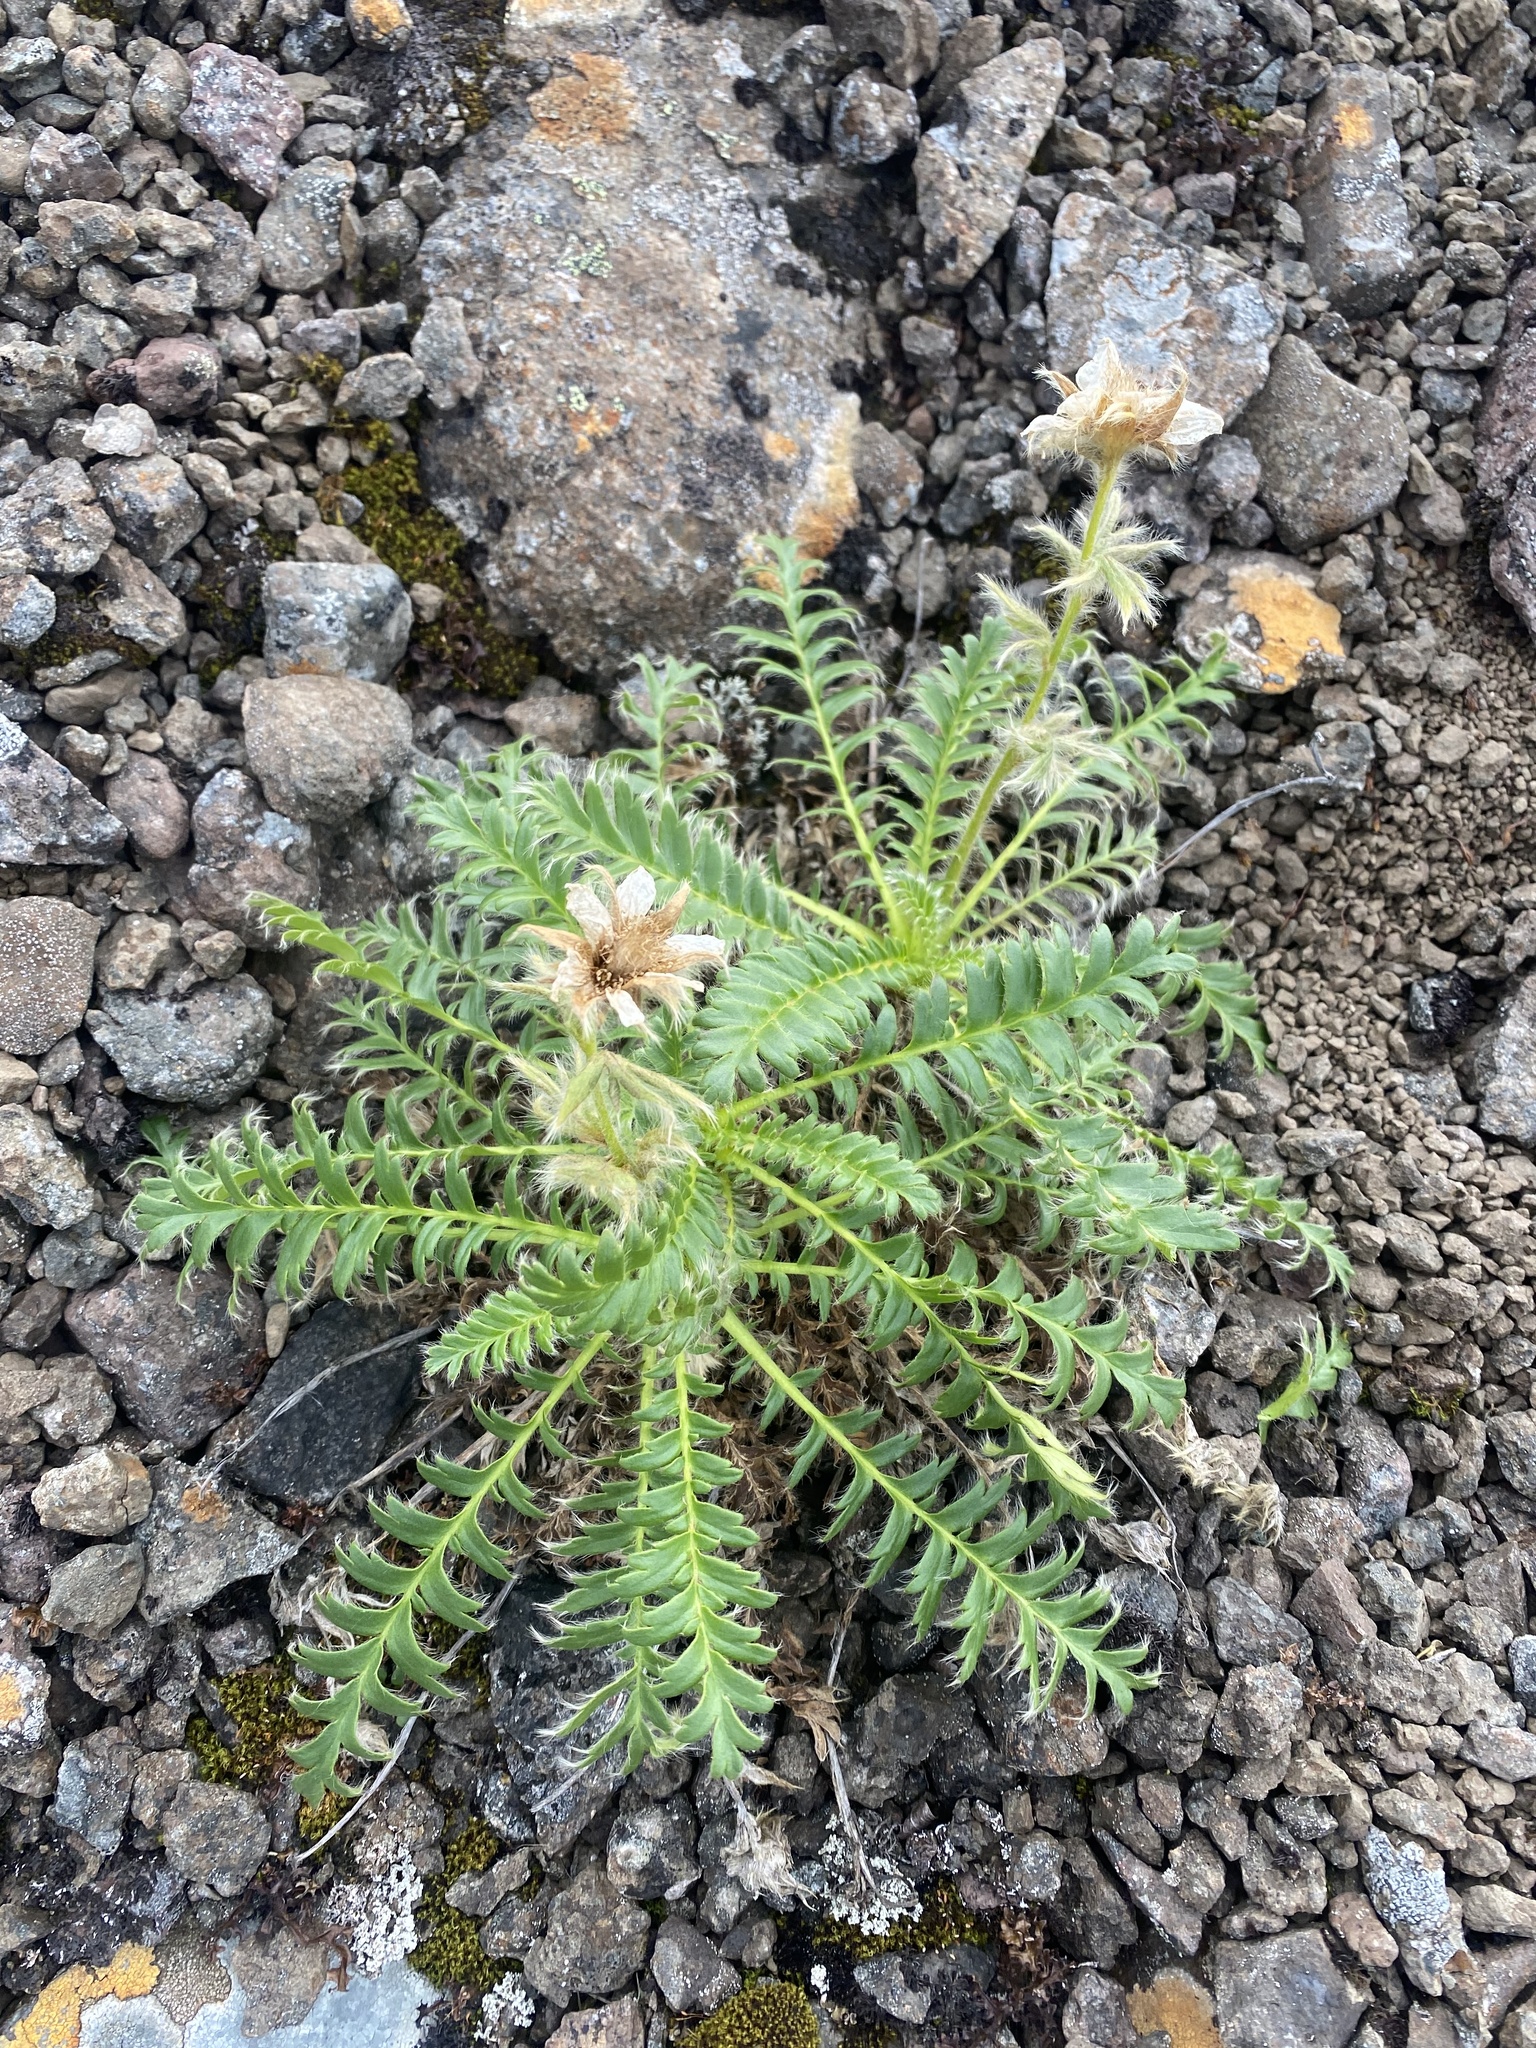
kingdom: Plantae
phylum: Tracheophyta
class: Magnoliopsida
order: Rosales
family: Rosaceae
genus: Geum
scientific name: Geum glaciale
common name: Glacier avens
